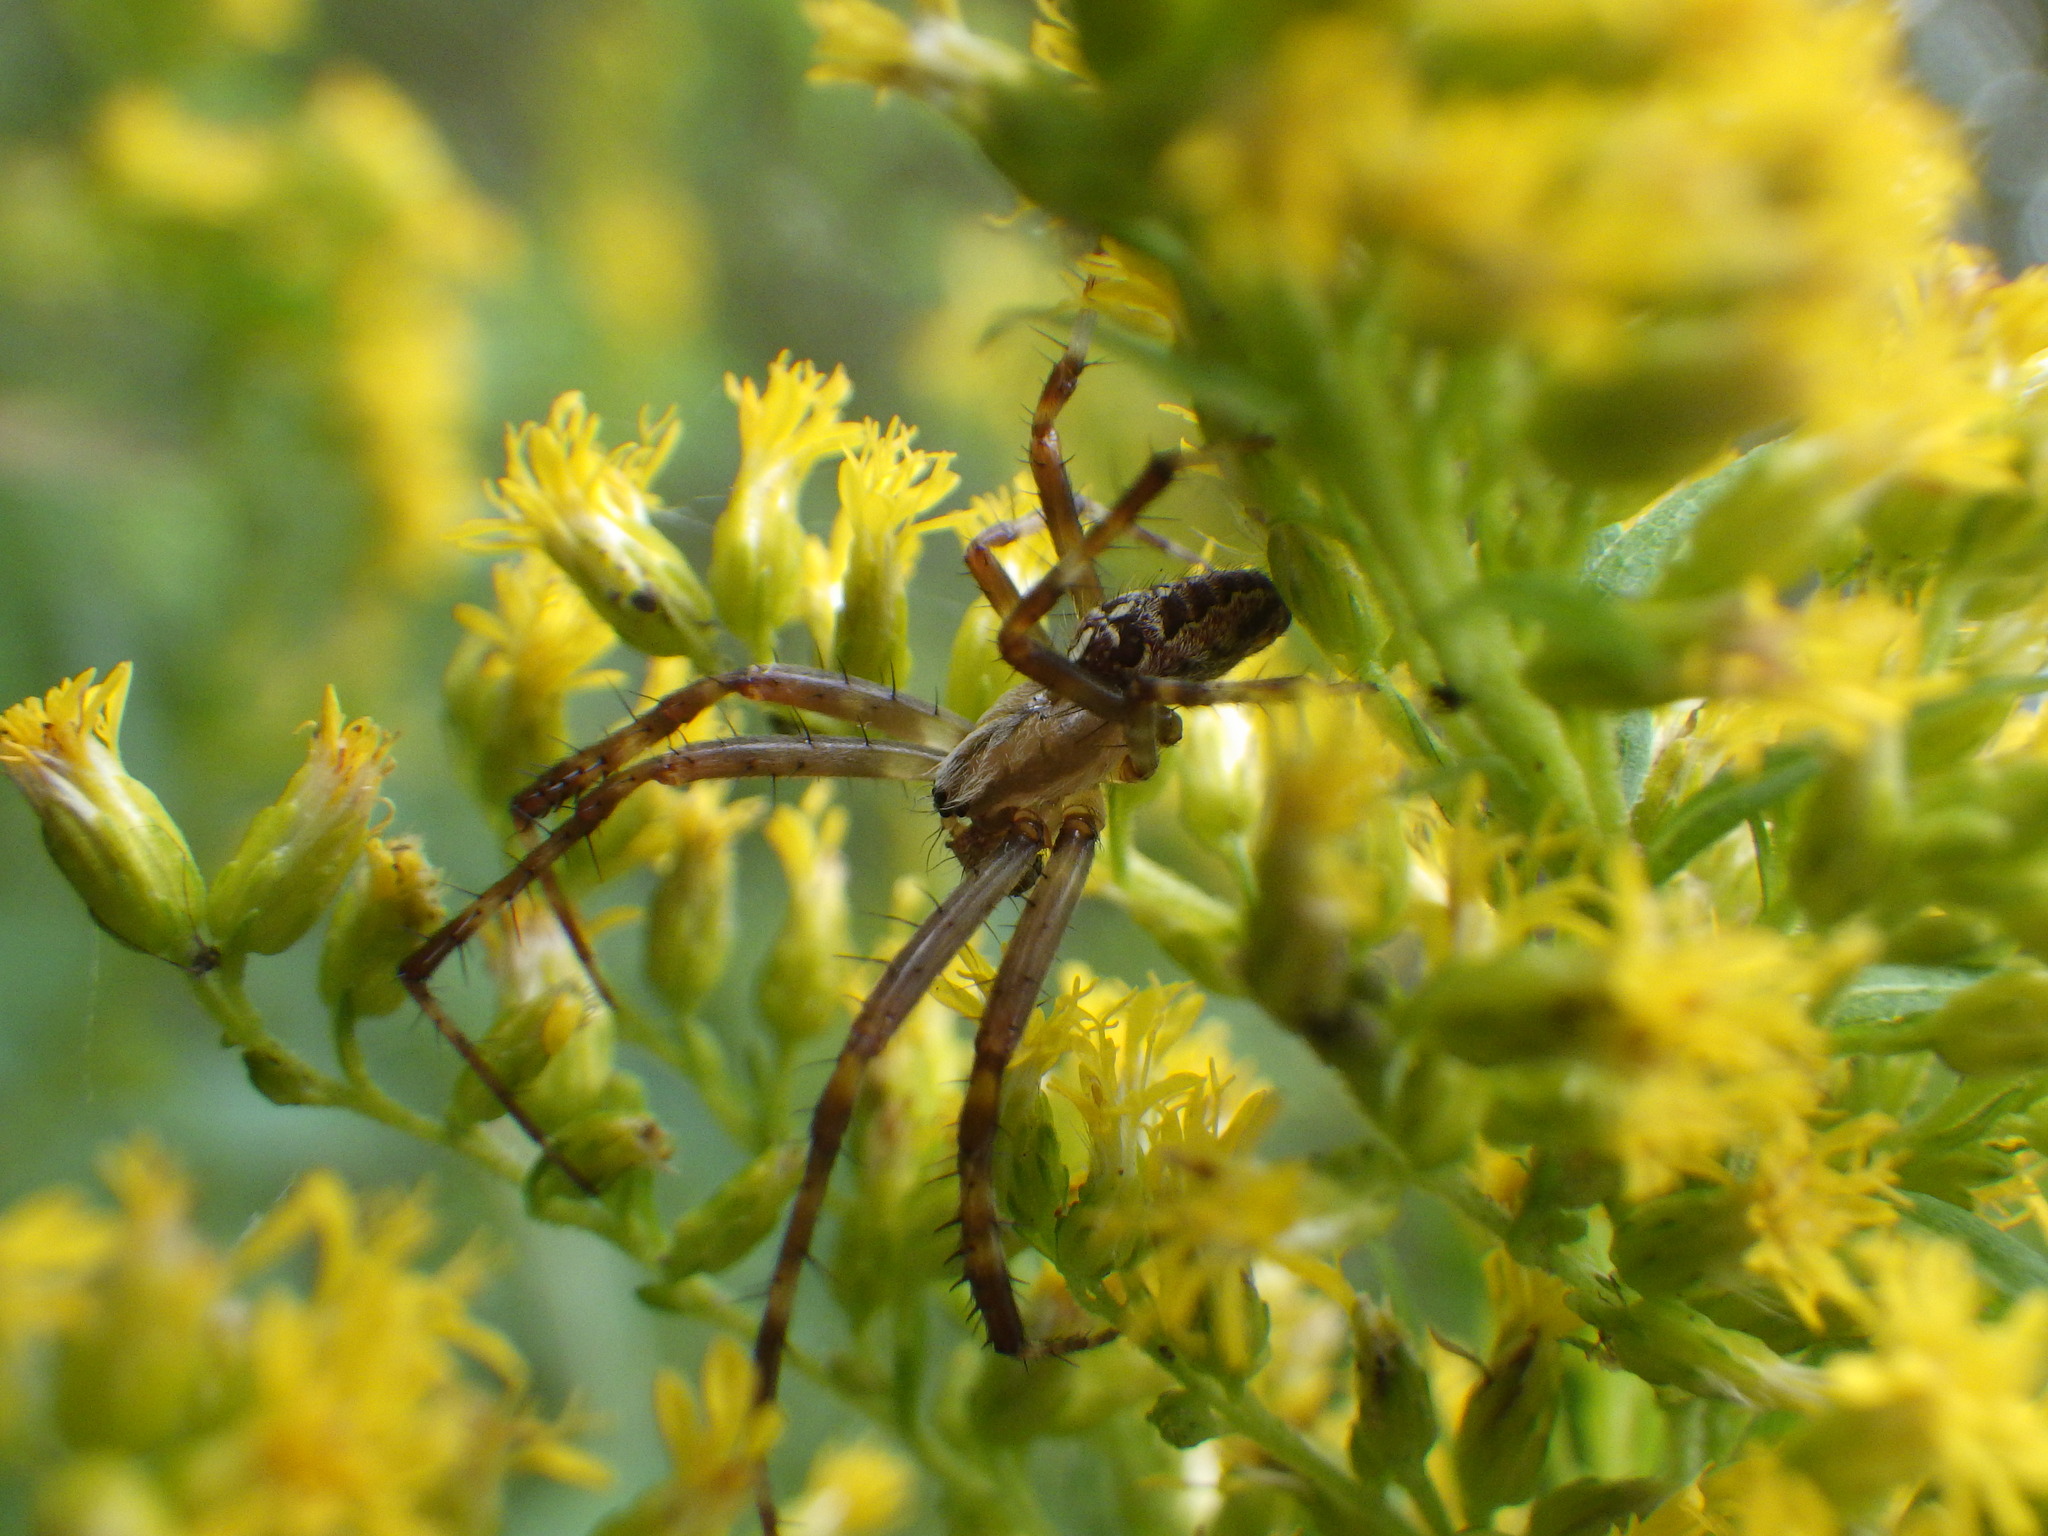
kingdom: Animalia
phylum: Arthropoda
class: Arachnida
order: Araneae
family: Araneidae
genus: Araneus
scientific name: Araneus diadematus
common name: Cross orbweaver
